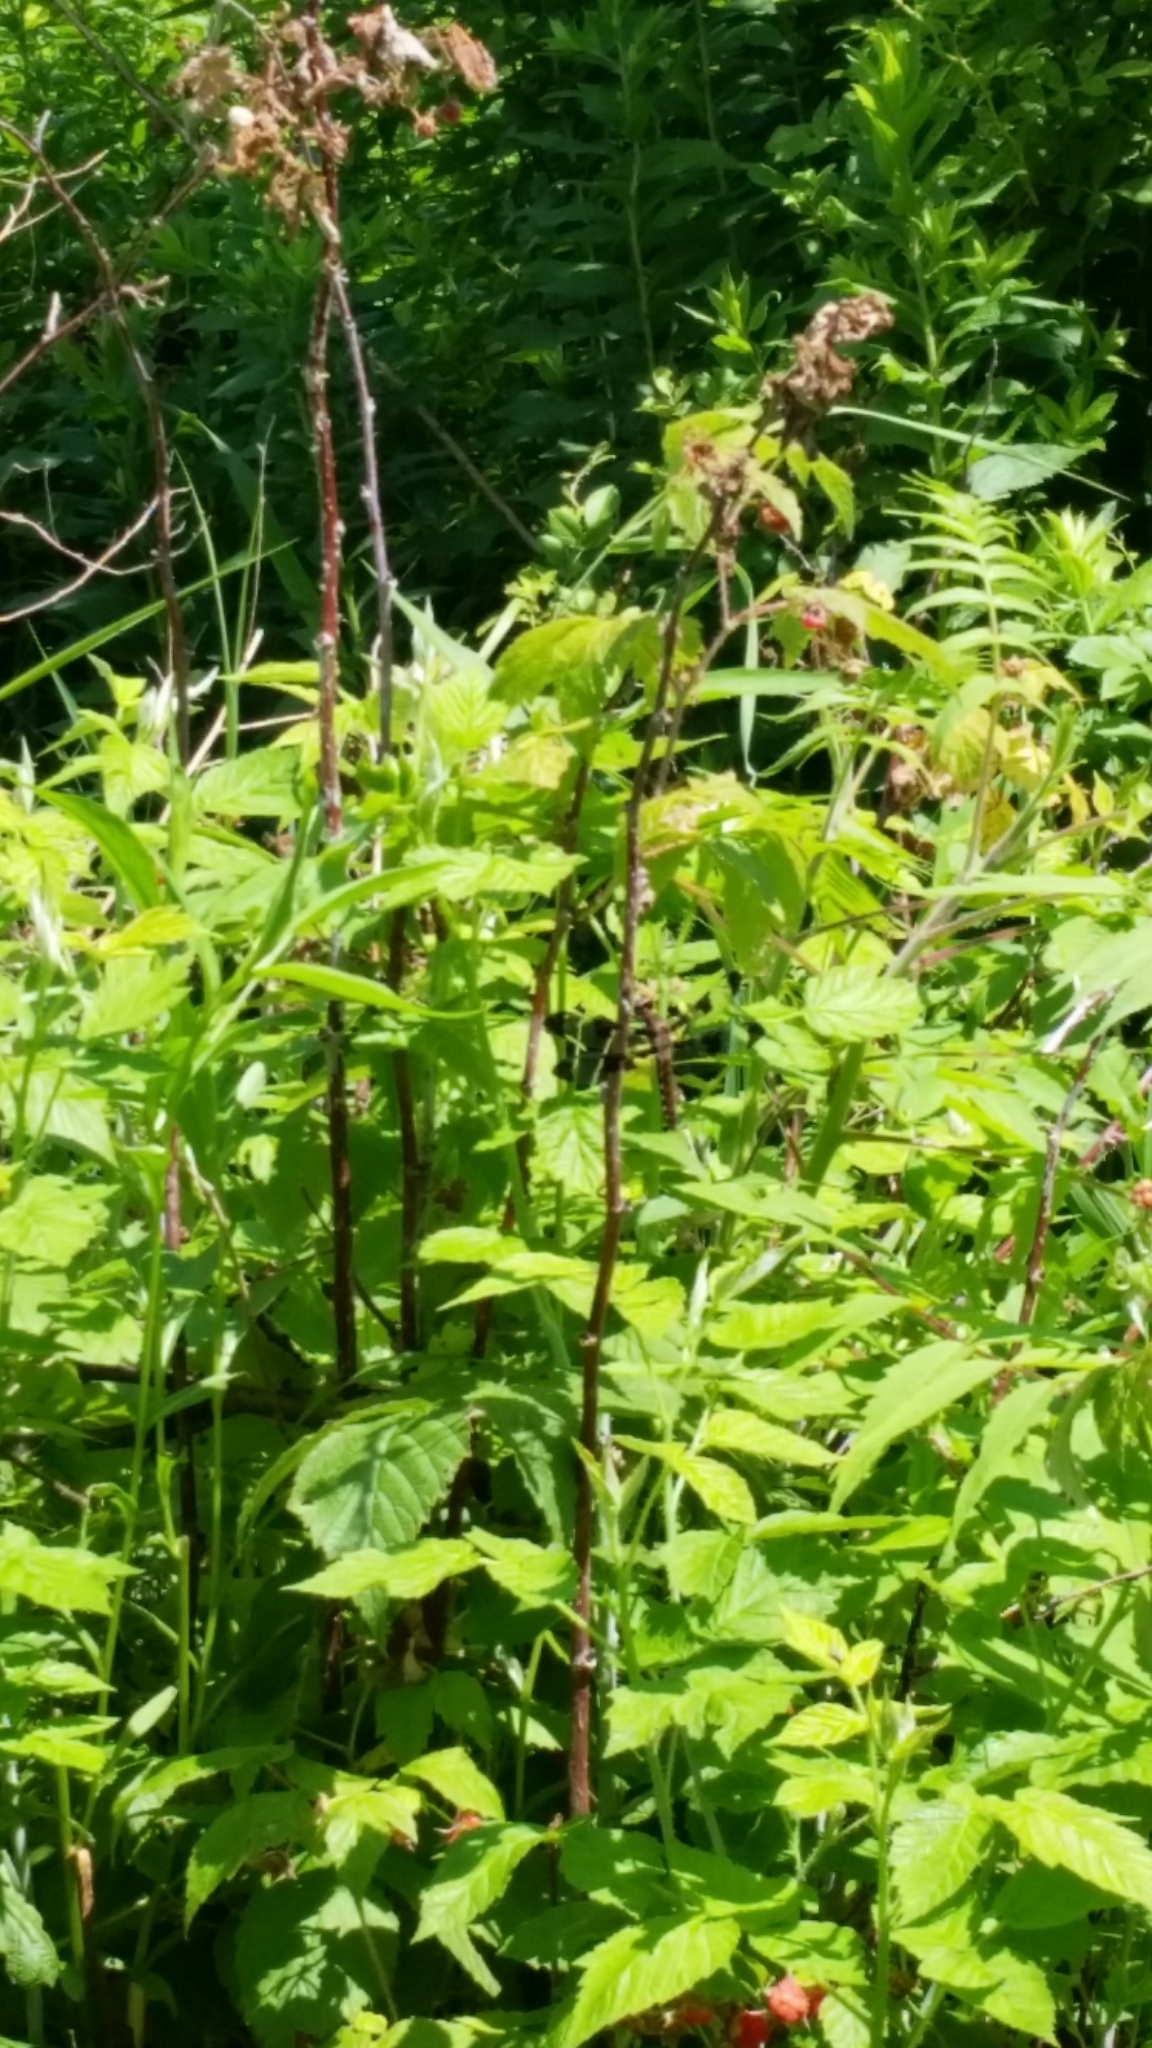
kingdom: Animalia
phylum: Arthropoda
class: Insecta
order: Odonata
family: Libellulidae
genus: Plathemis
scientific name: Plathemis lydia
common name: Common whitetail
